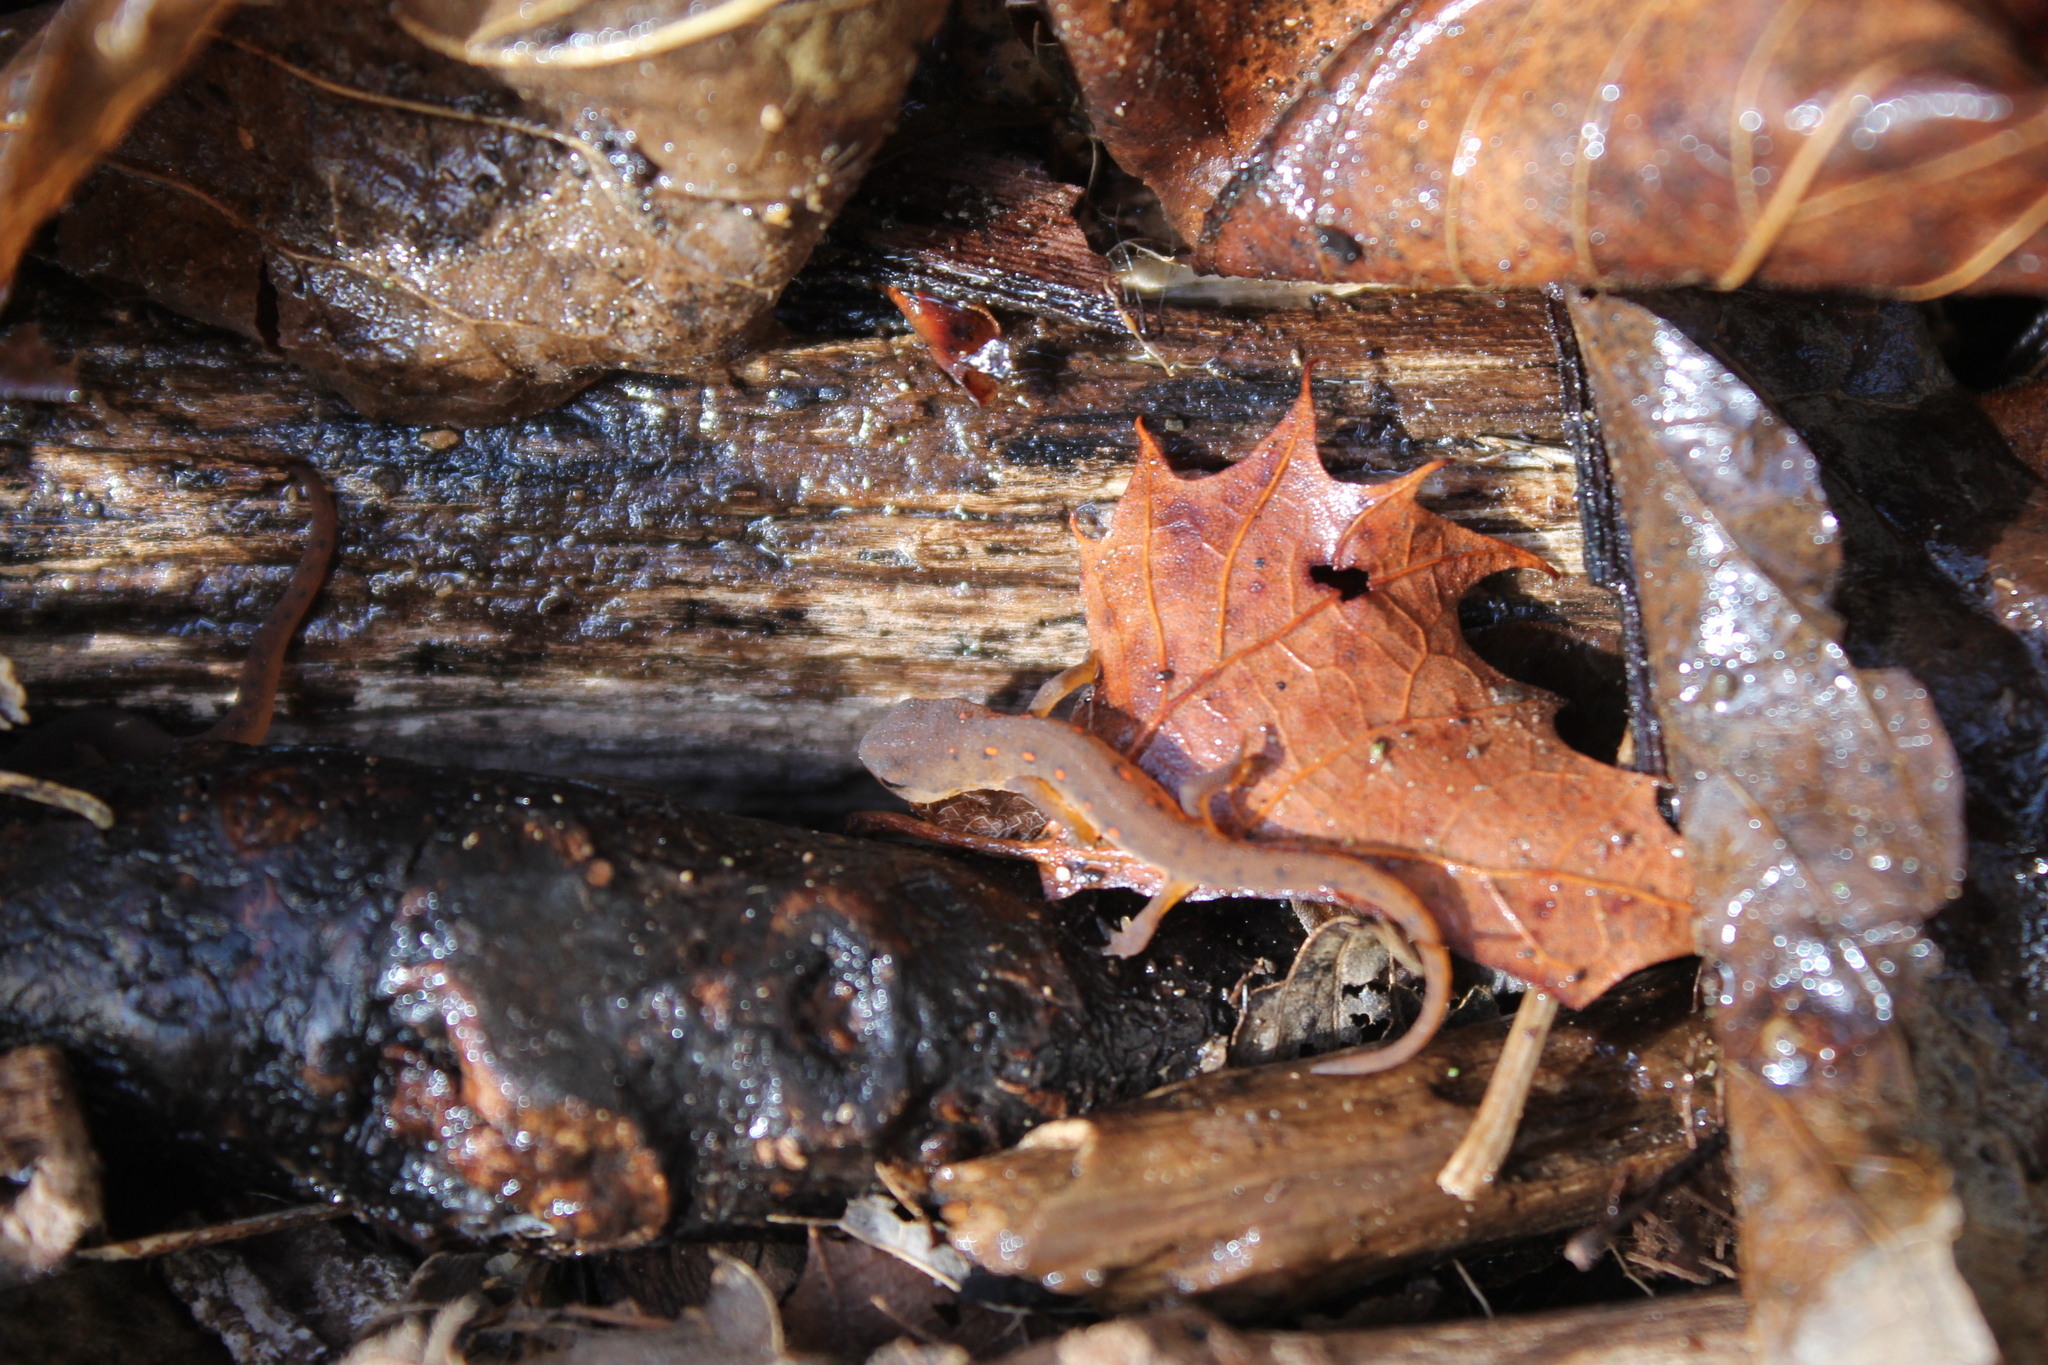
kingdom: Animalia
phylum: Chordata
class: Amphibia
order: Caudata
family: Salamandridae
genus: Notophthalmus
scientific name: Notophthalmus viridescens
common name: Eastern newt
